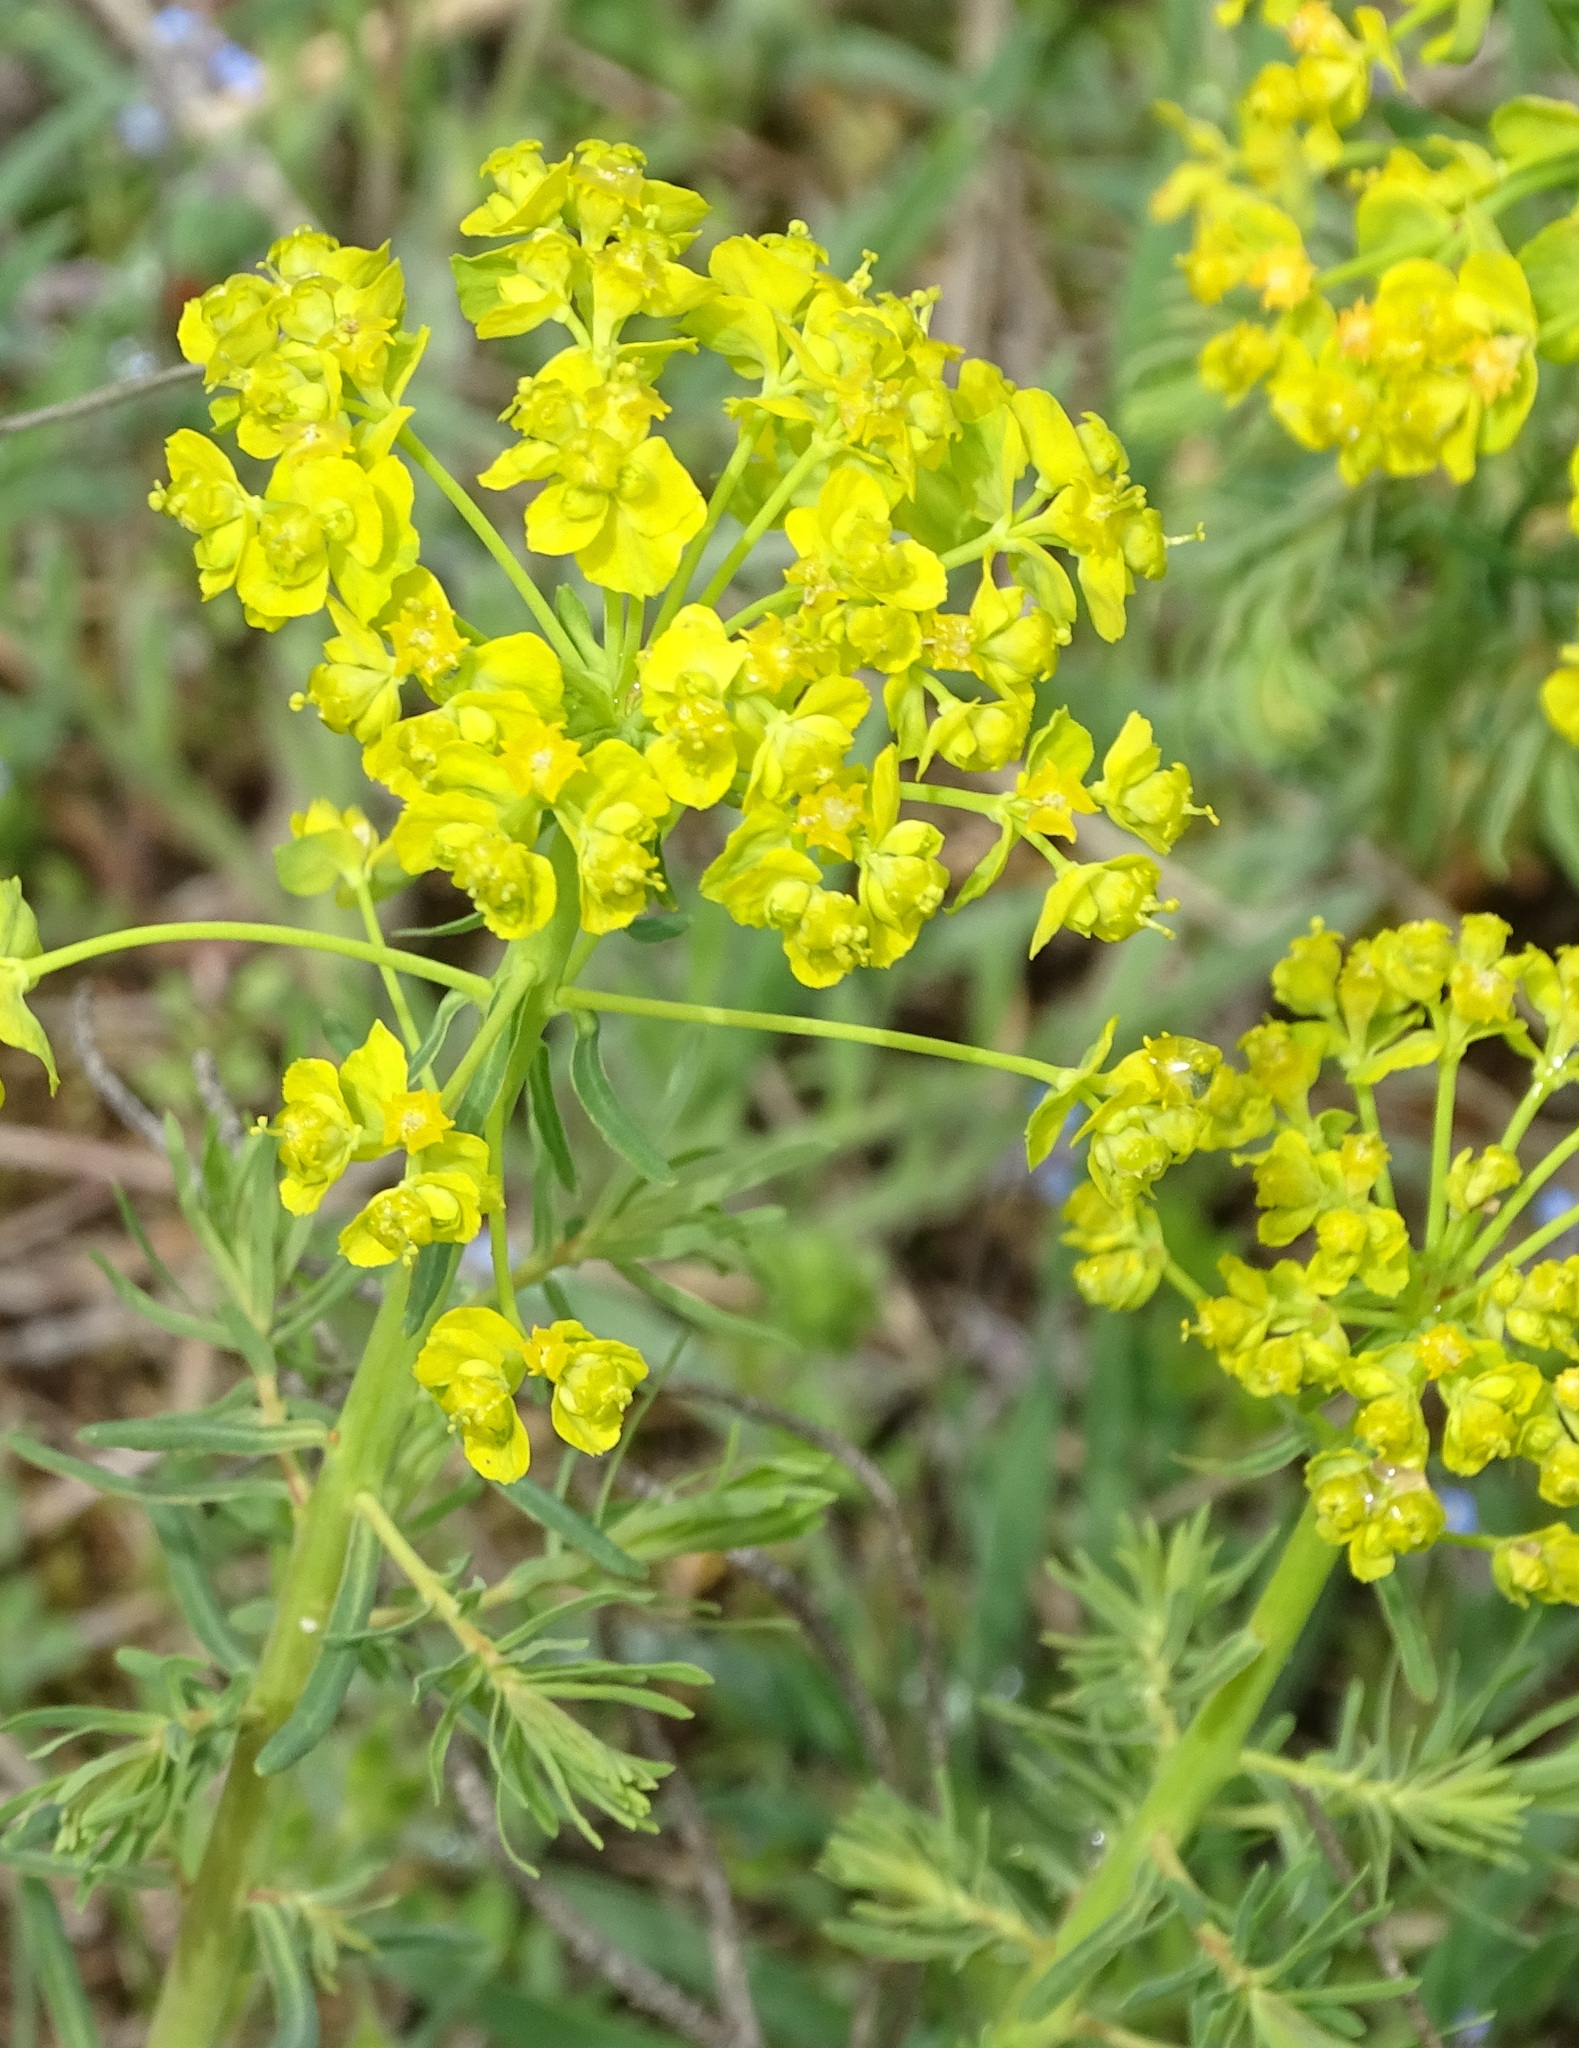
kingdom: Plantae
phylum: Tracheophyta
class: Magnoliopsida
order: Malpighiales
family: Euphorbiaceae
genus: Euphorbia
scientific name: Euphorbia cyparissias
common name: Cypress spurge
